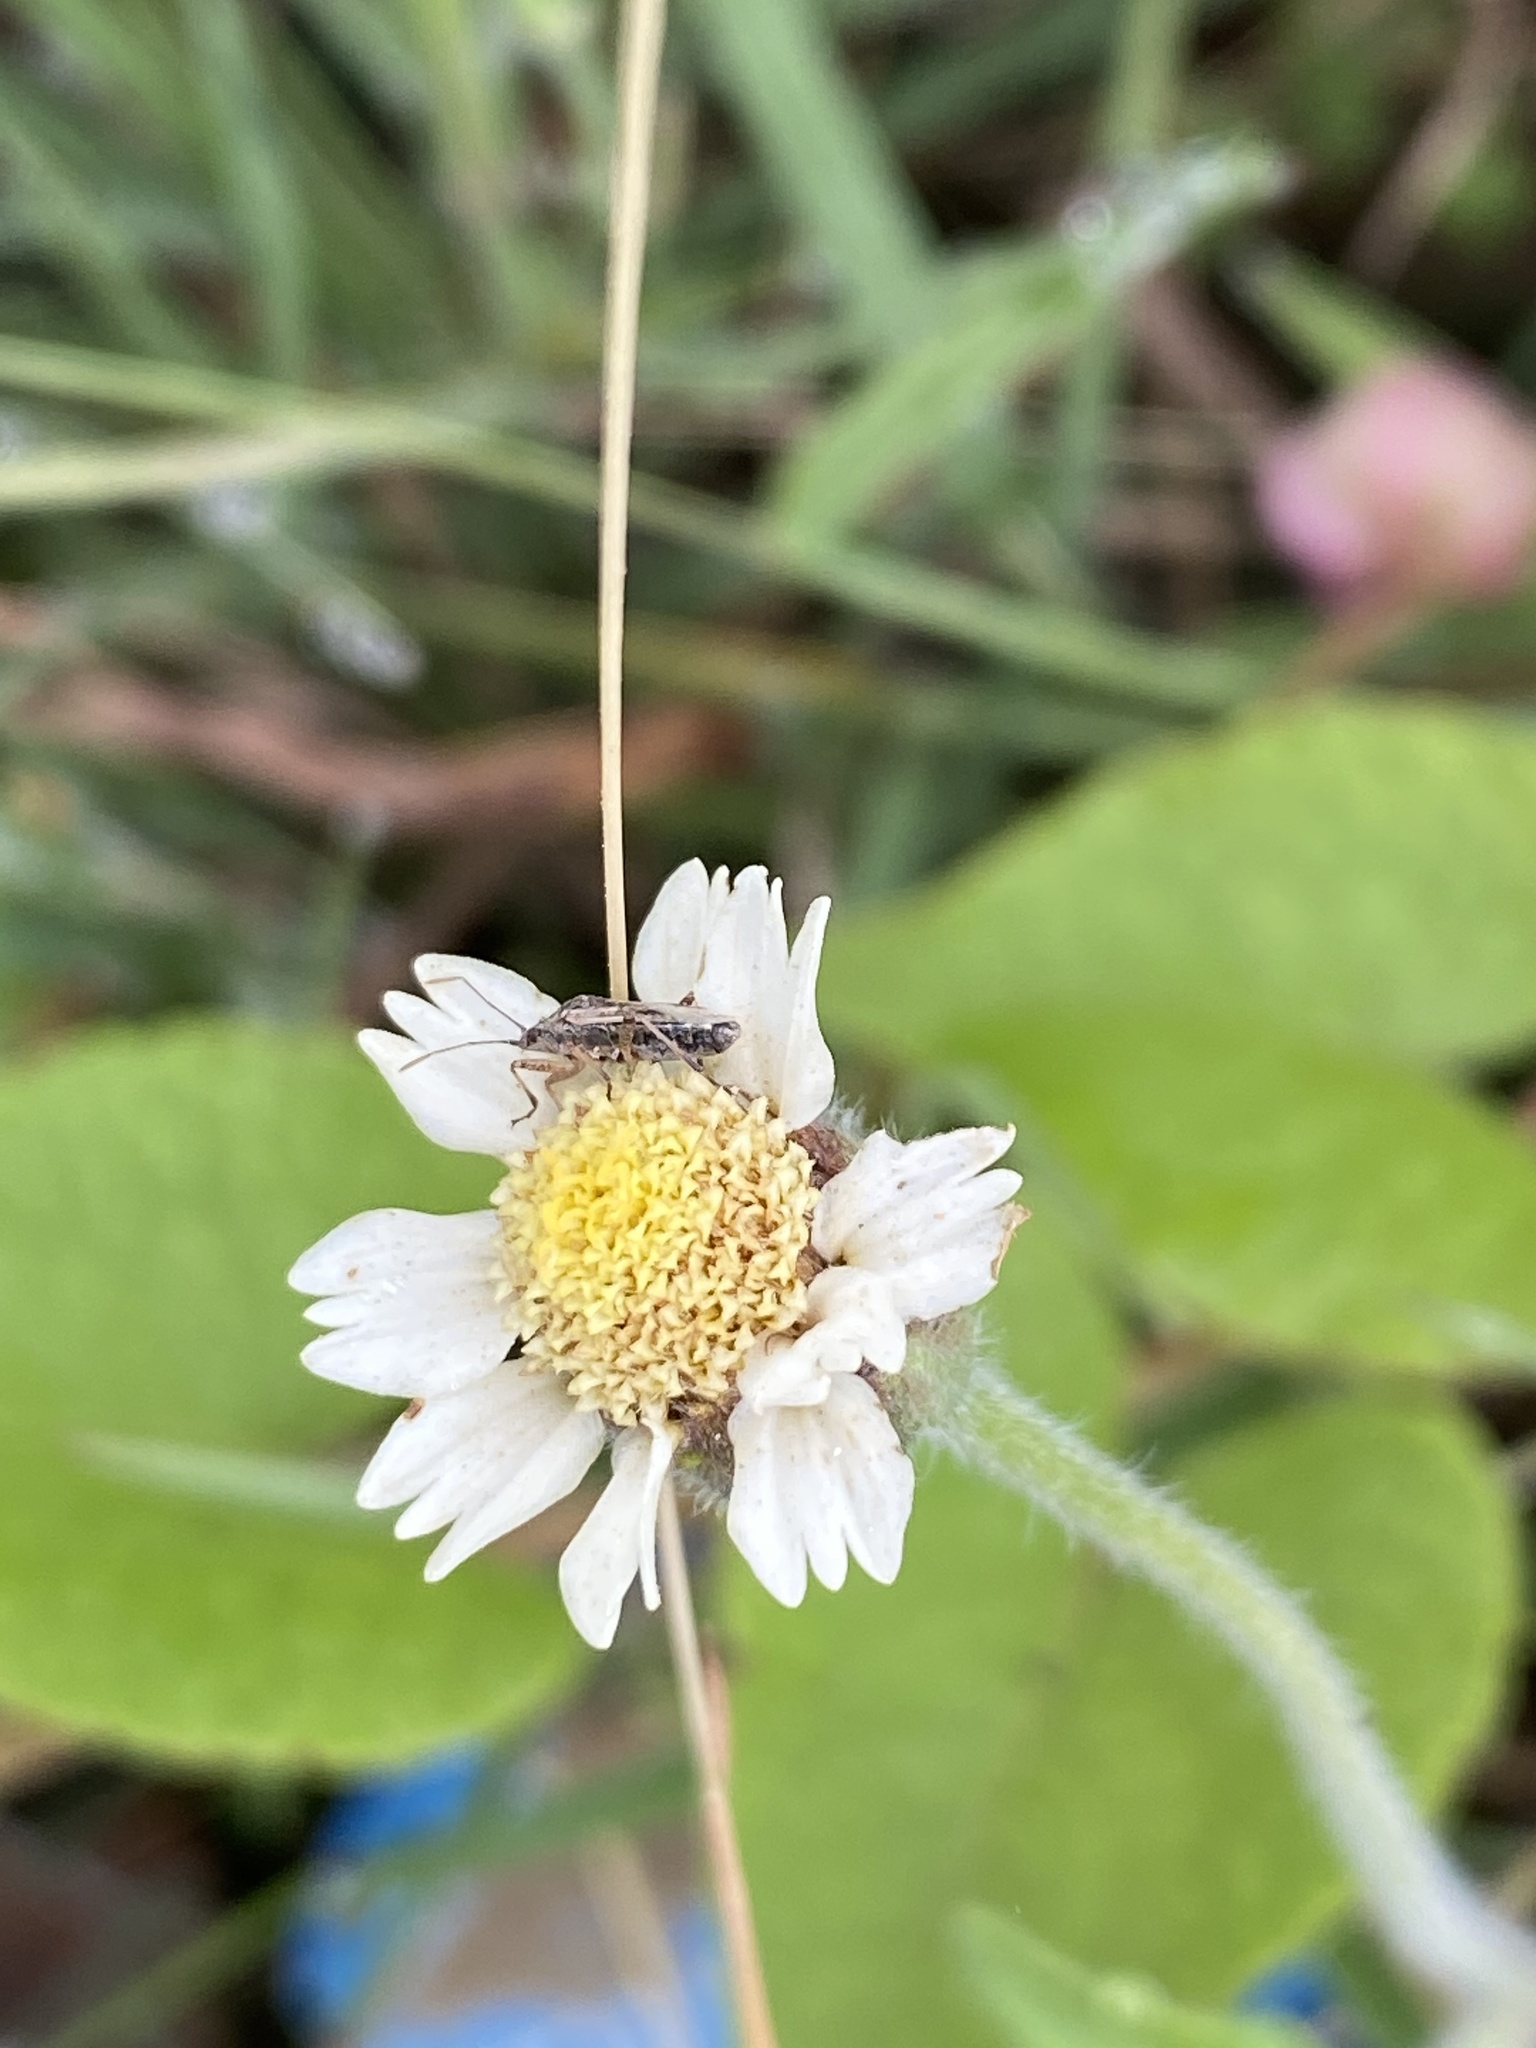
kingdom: Plantae
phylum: Tracheophyta
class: Magnoliopsida
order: Asterales
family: Asteraceae
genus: Tridax
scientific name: Tridax procumbens
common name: Coatbuttons
